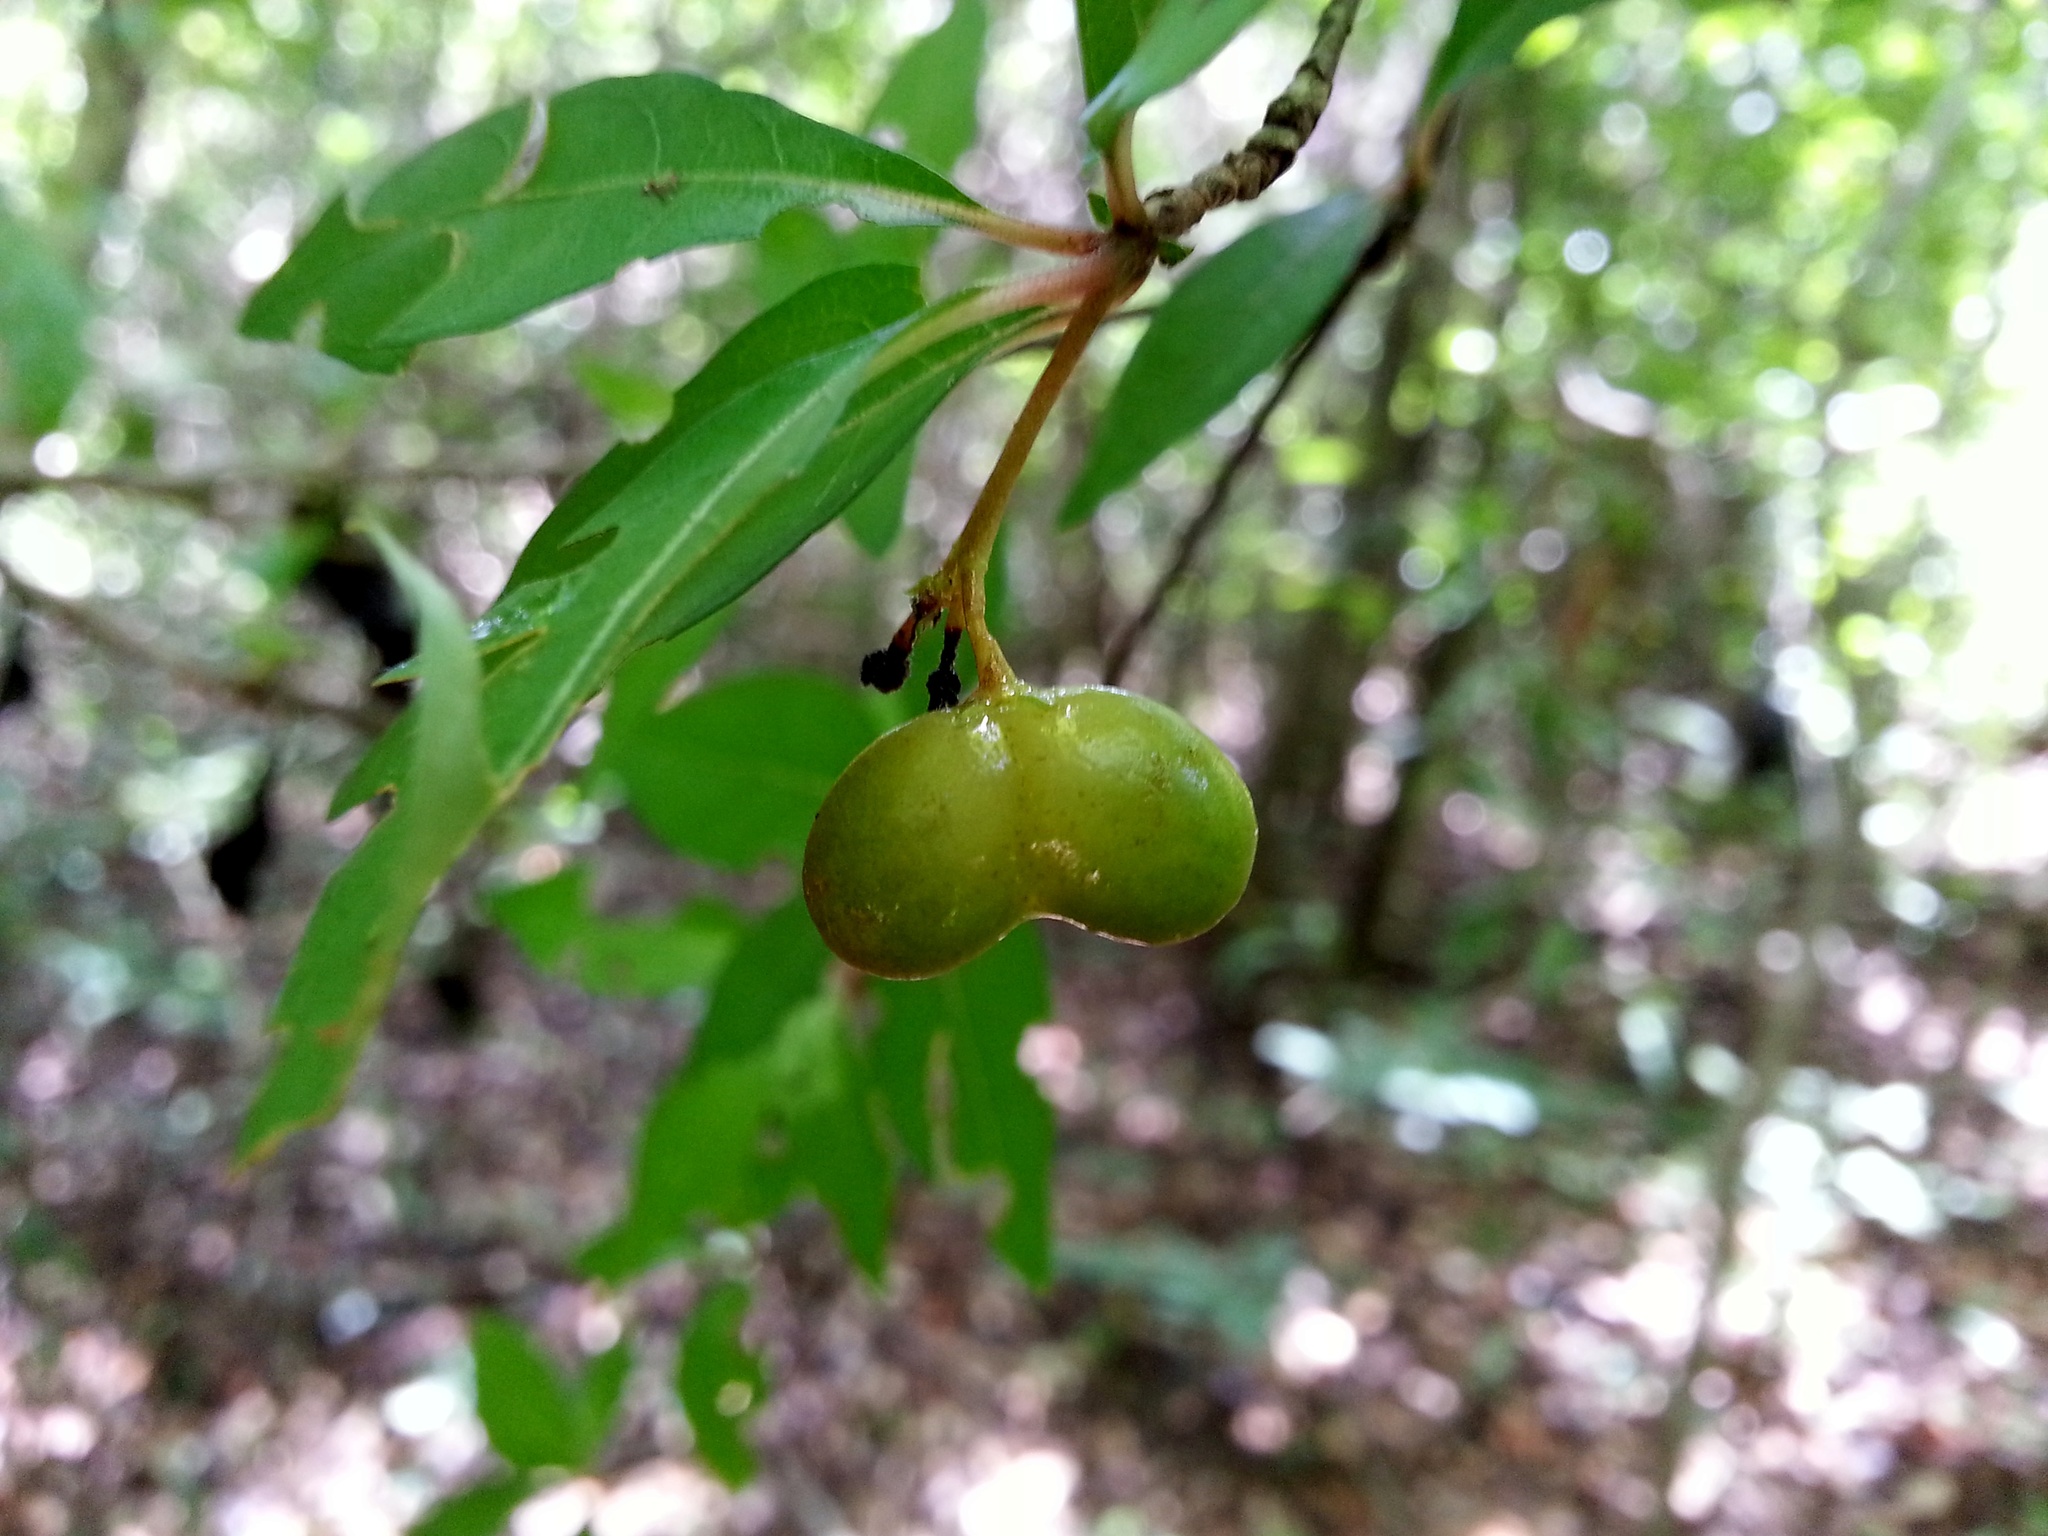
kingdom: Plantae
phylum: Tracheophyta
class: Magnoliopsida
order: Gentianales
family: Gelsemiaceae
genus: Mostuea
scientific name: Mostuea brunonis
